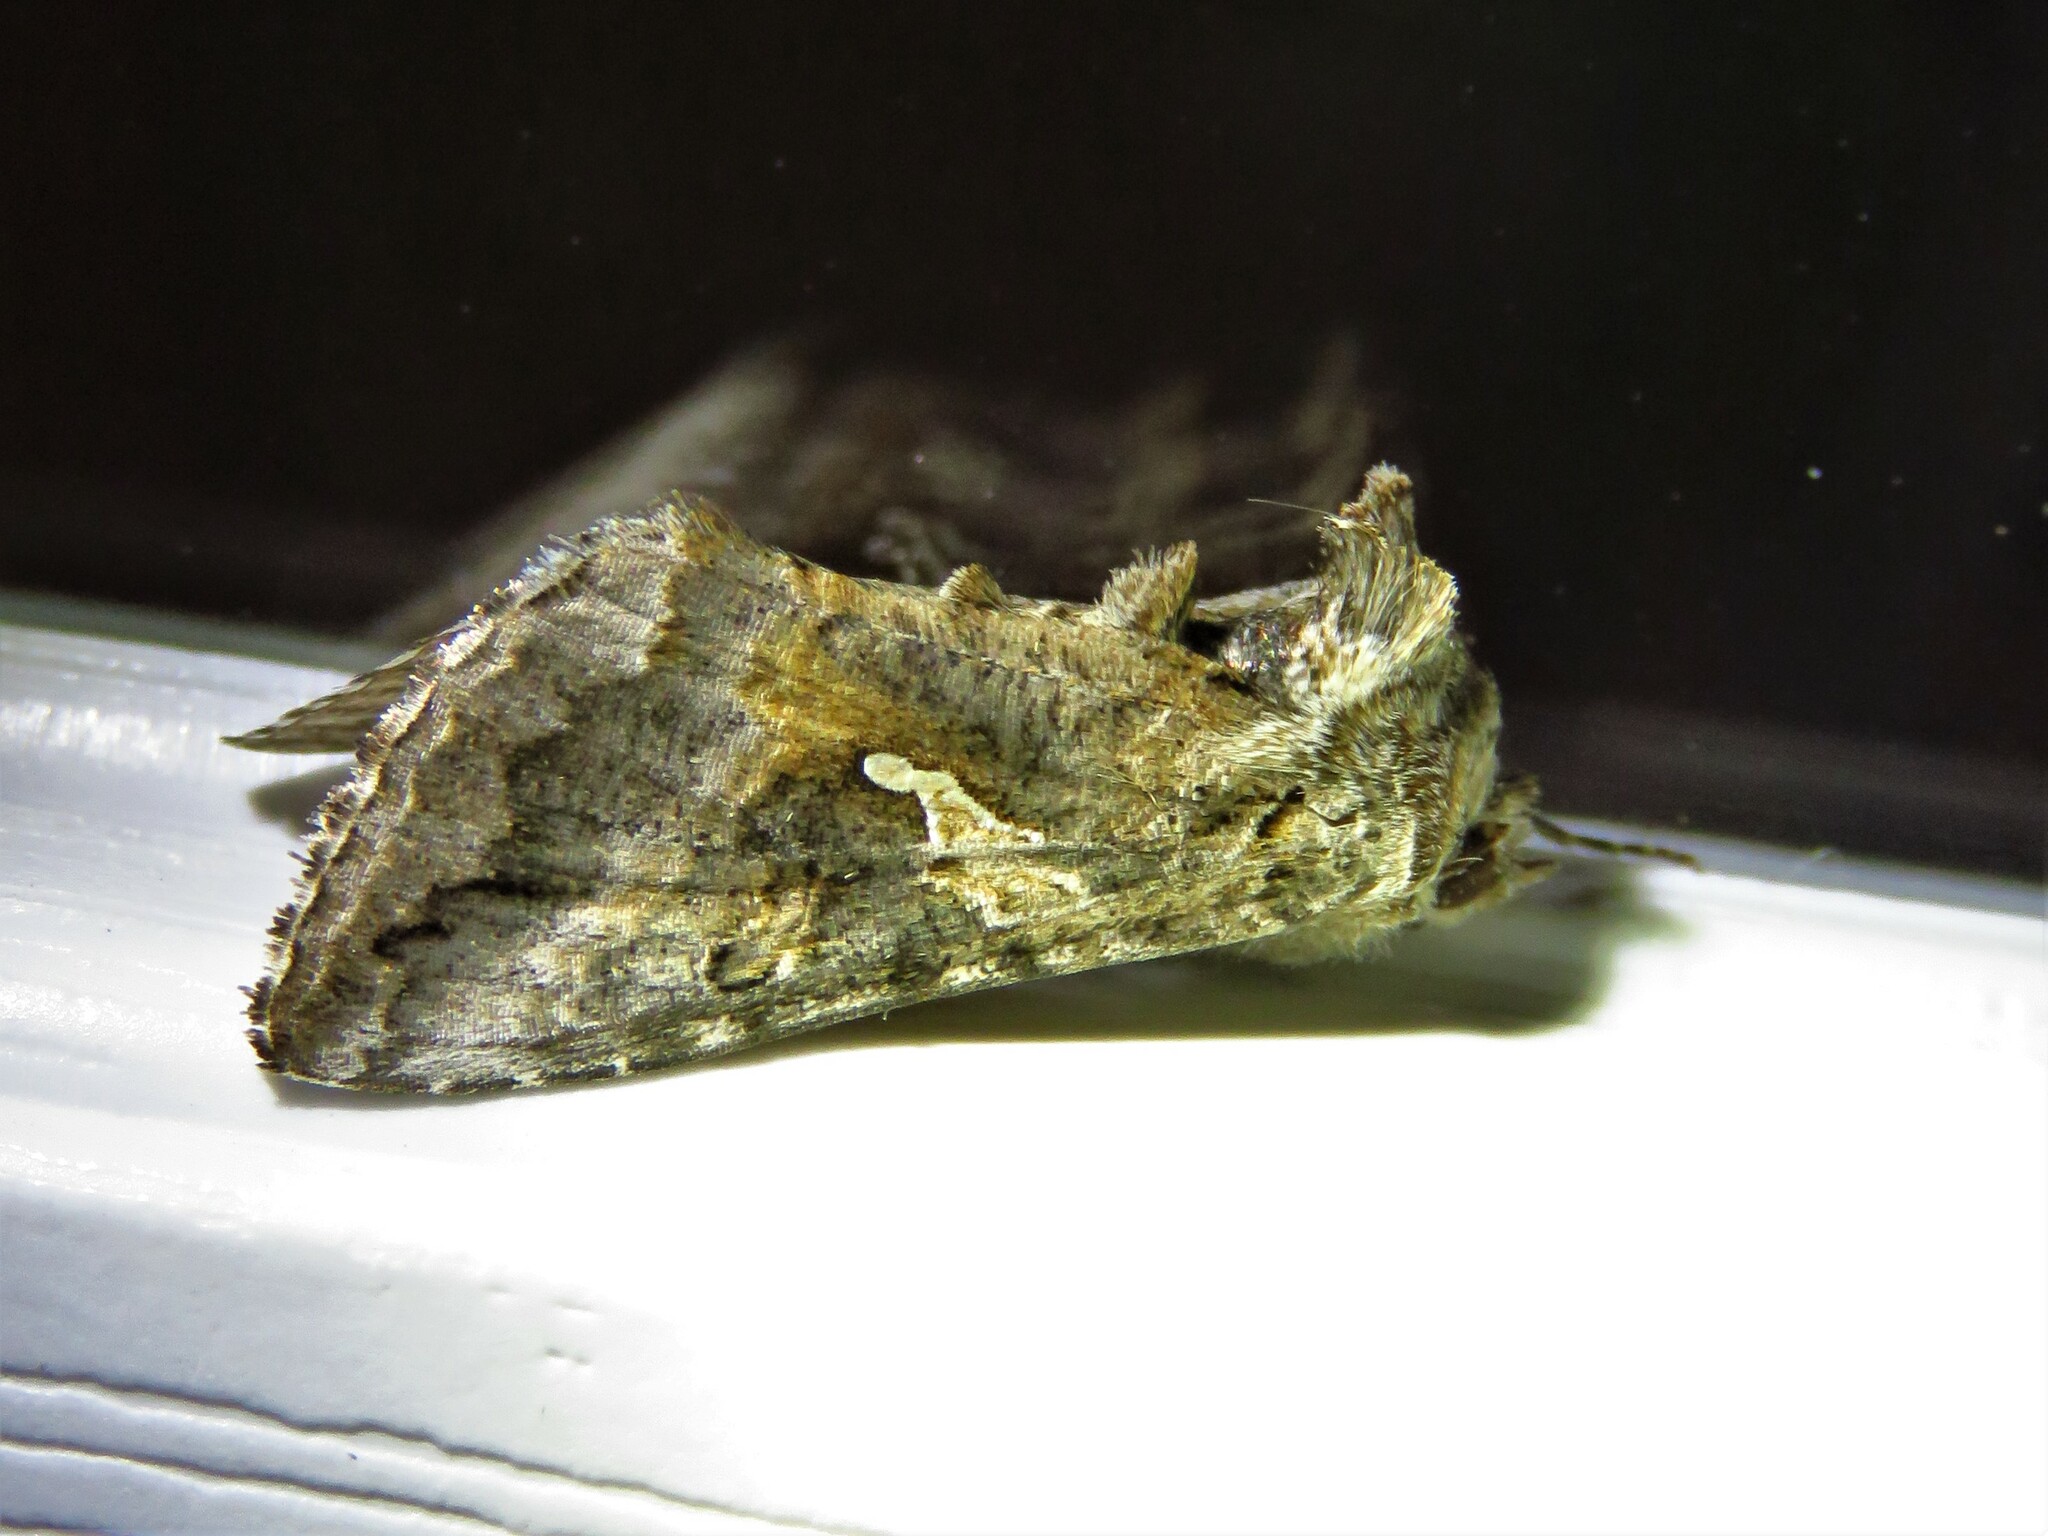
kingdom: Animalia
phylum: Arthropoda
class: Insecta
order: Lepidoptera
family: Noctuidae
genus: Rachiplusia
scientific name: Rachiplusia ou
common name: Gray looper moth
